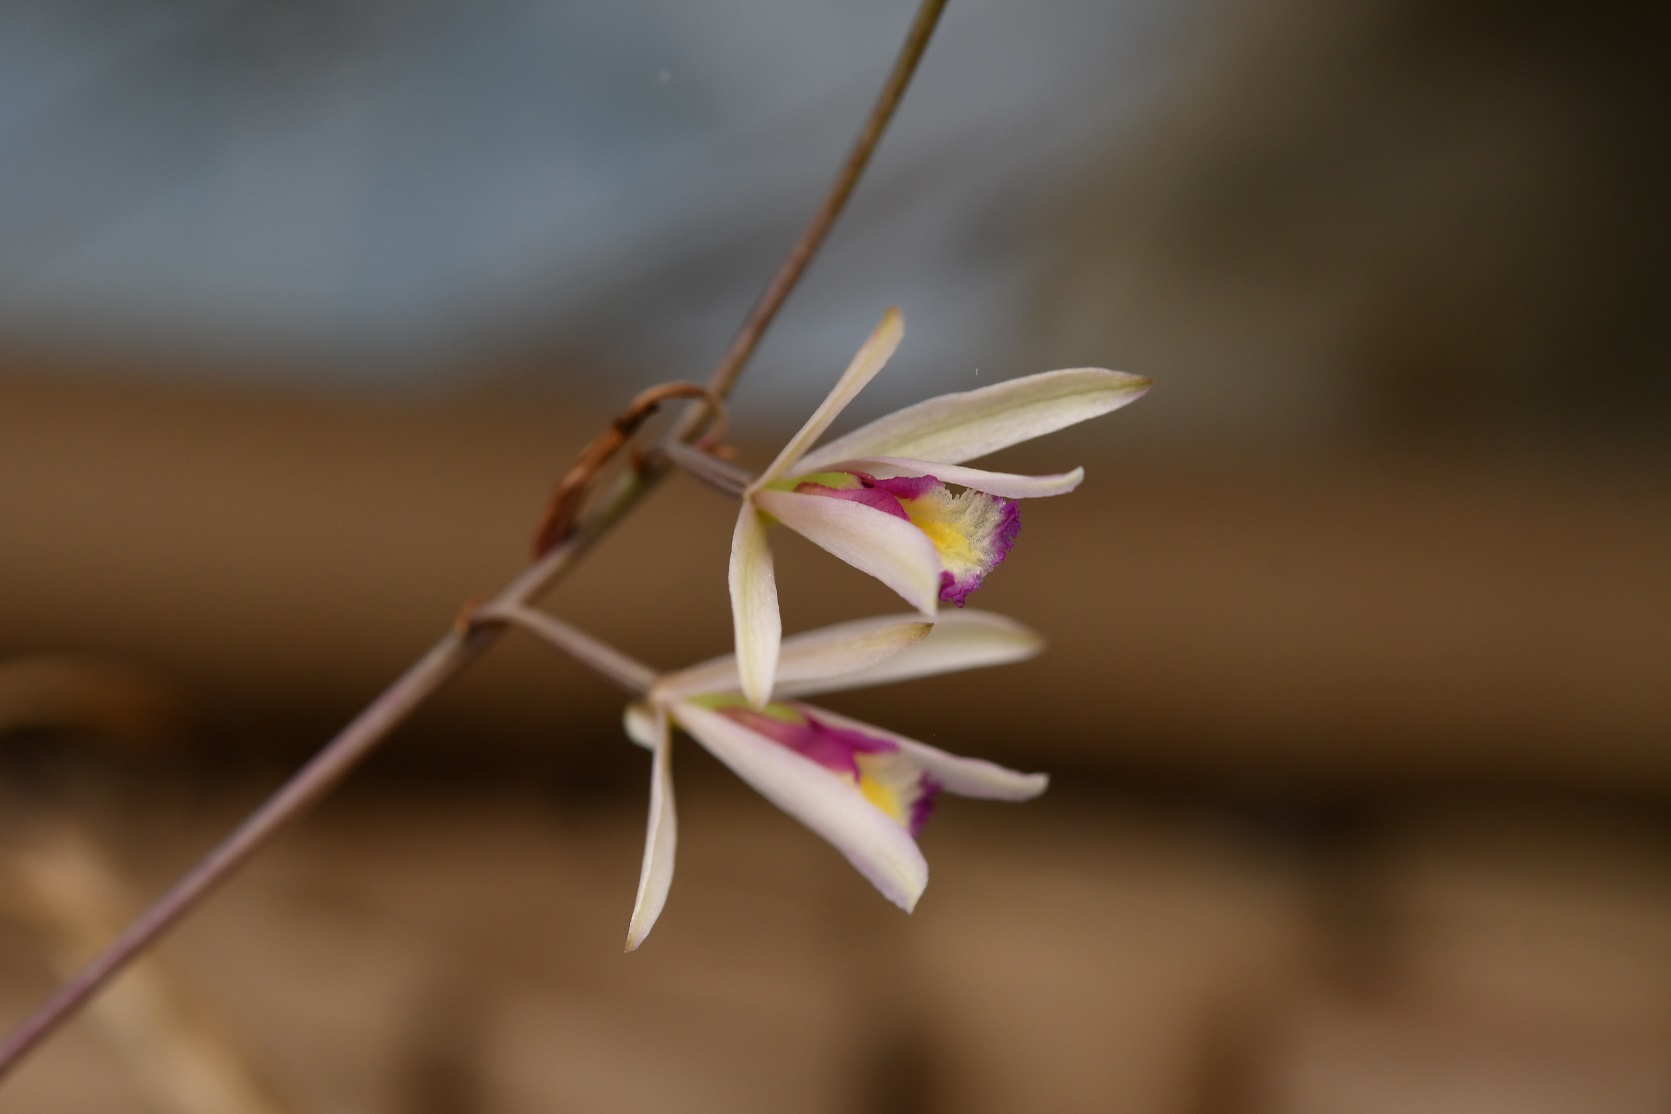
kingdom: Plantae
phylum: Tracheophyta
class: Liliopsida
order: Asparagales
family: Orchidaceae
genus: Bletia
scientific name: Bletia parkinsonii
